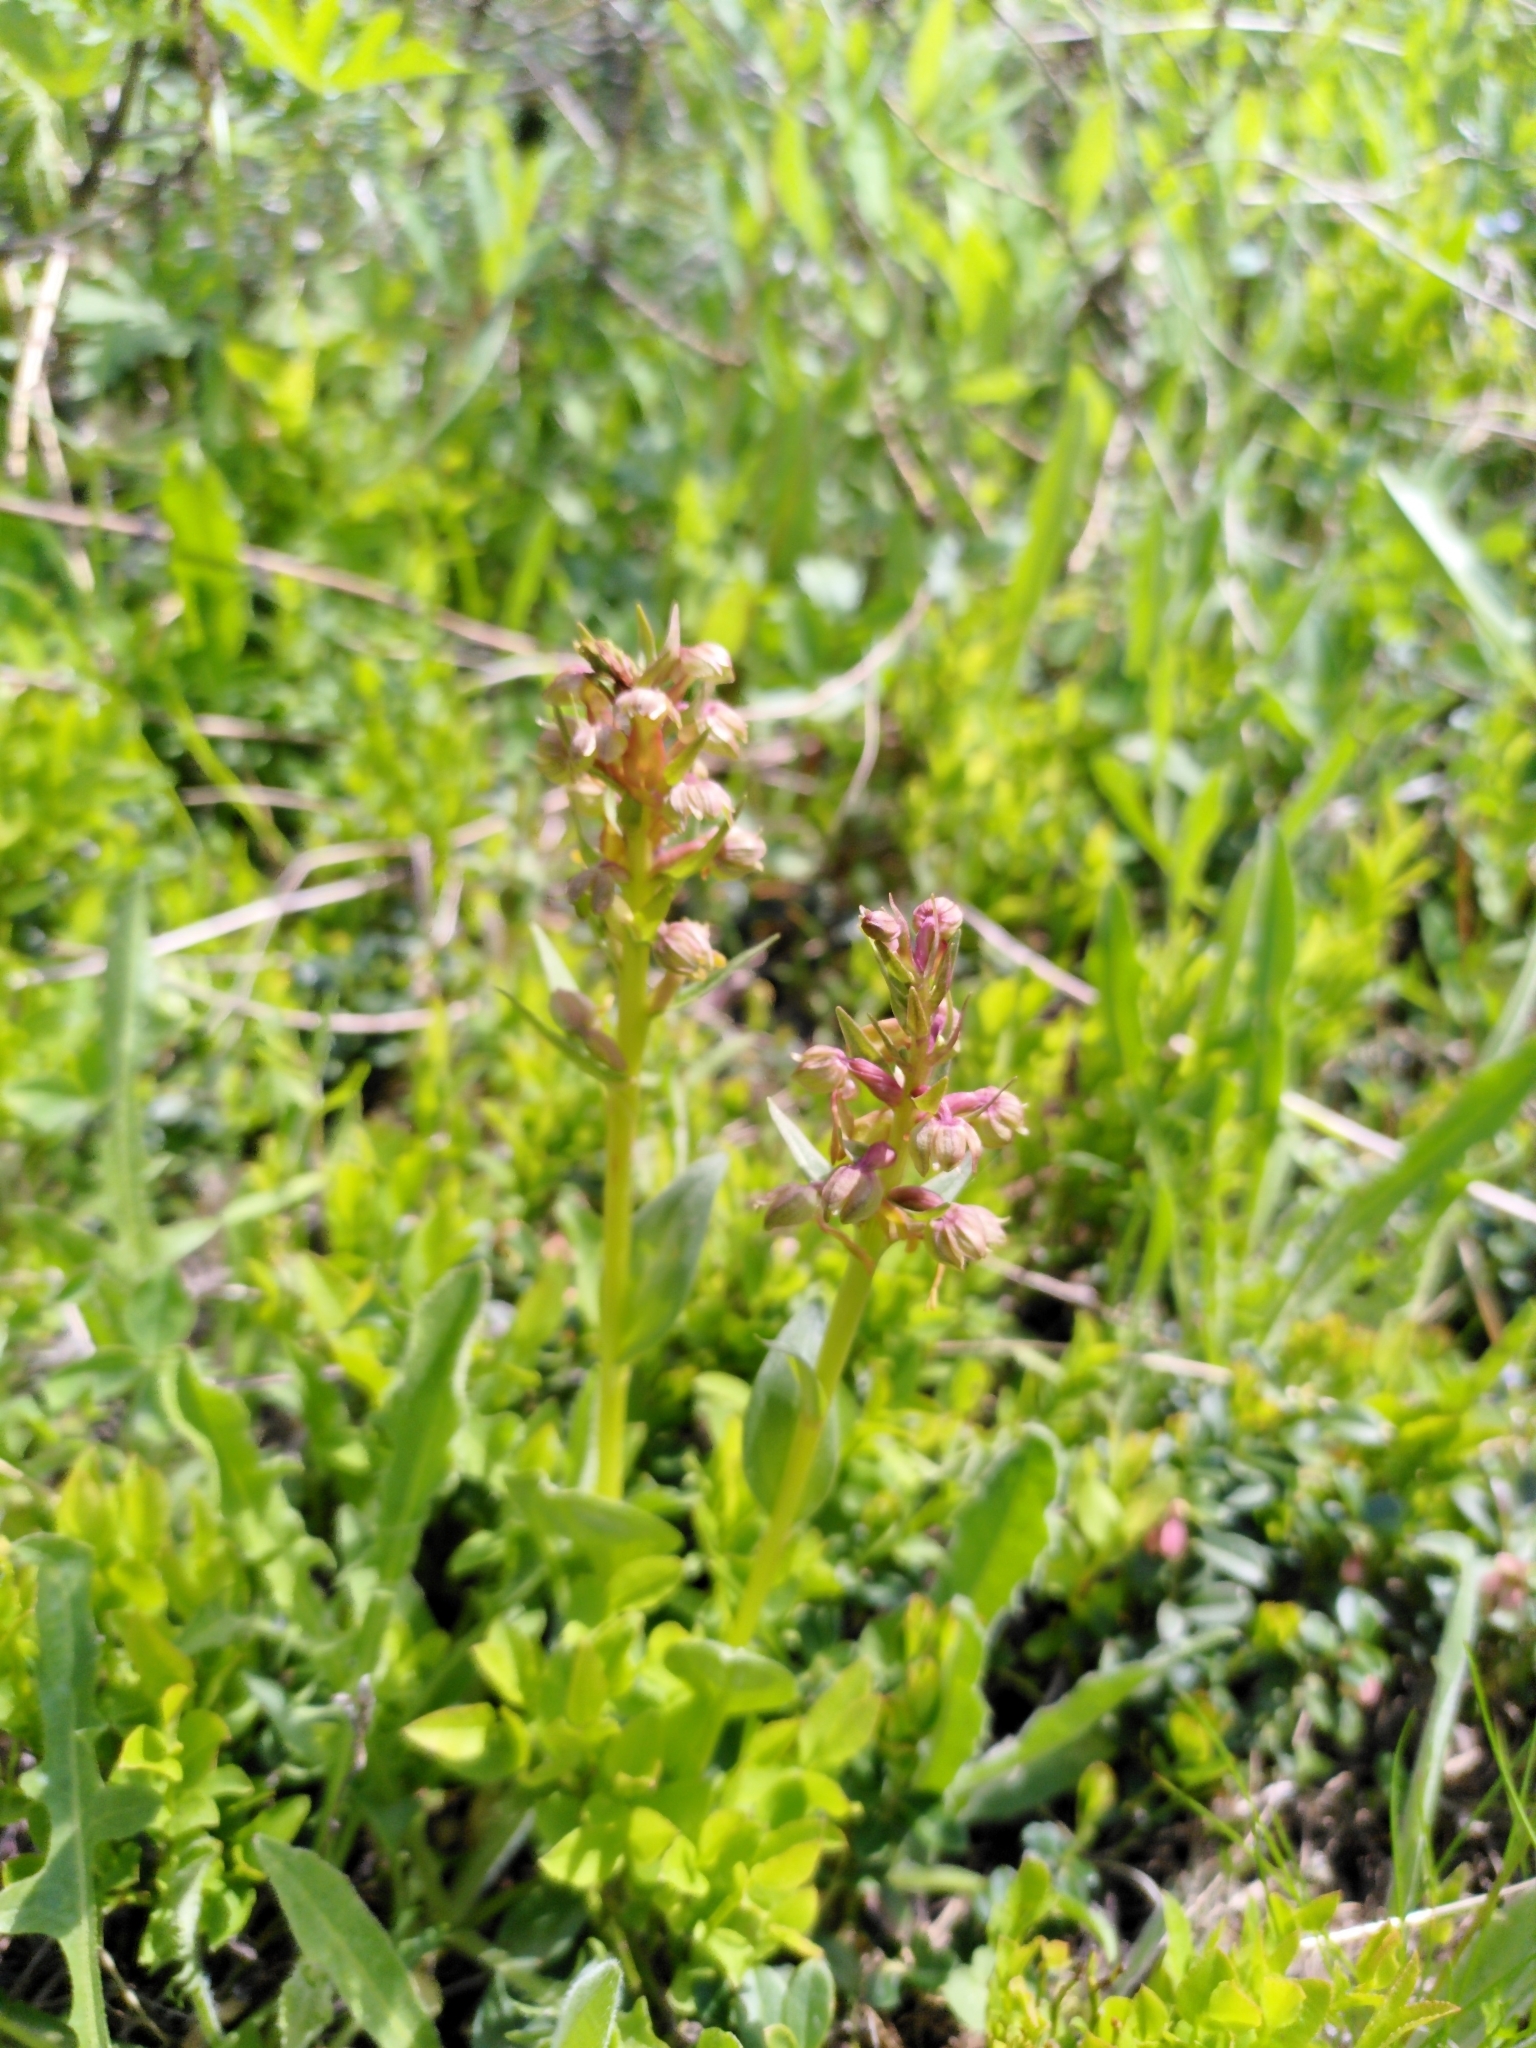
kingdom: Plantae
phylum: Tracheophyta
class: Liliopsida
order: Asparagales
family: Orchidaceae
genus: Dactylorhiza
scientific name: Dactylorhiza viridis
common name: Longbract frog orchid
